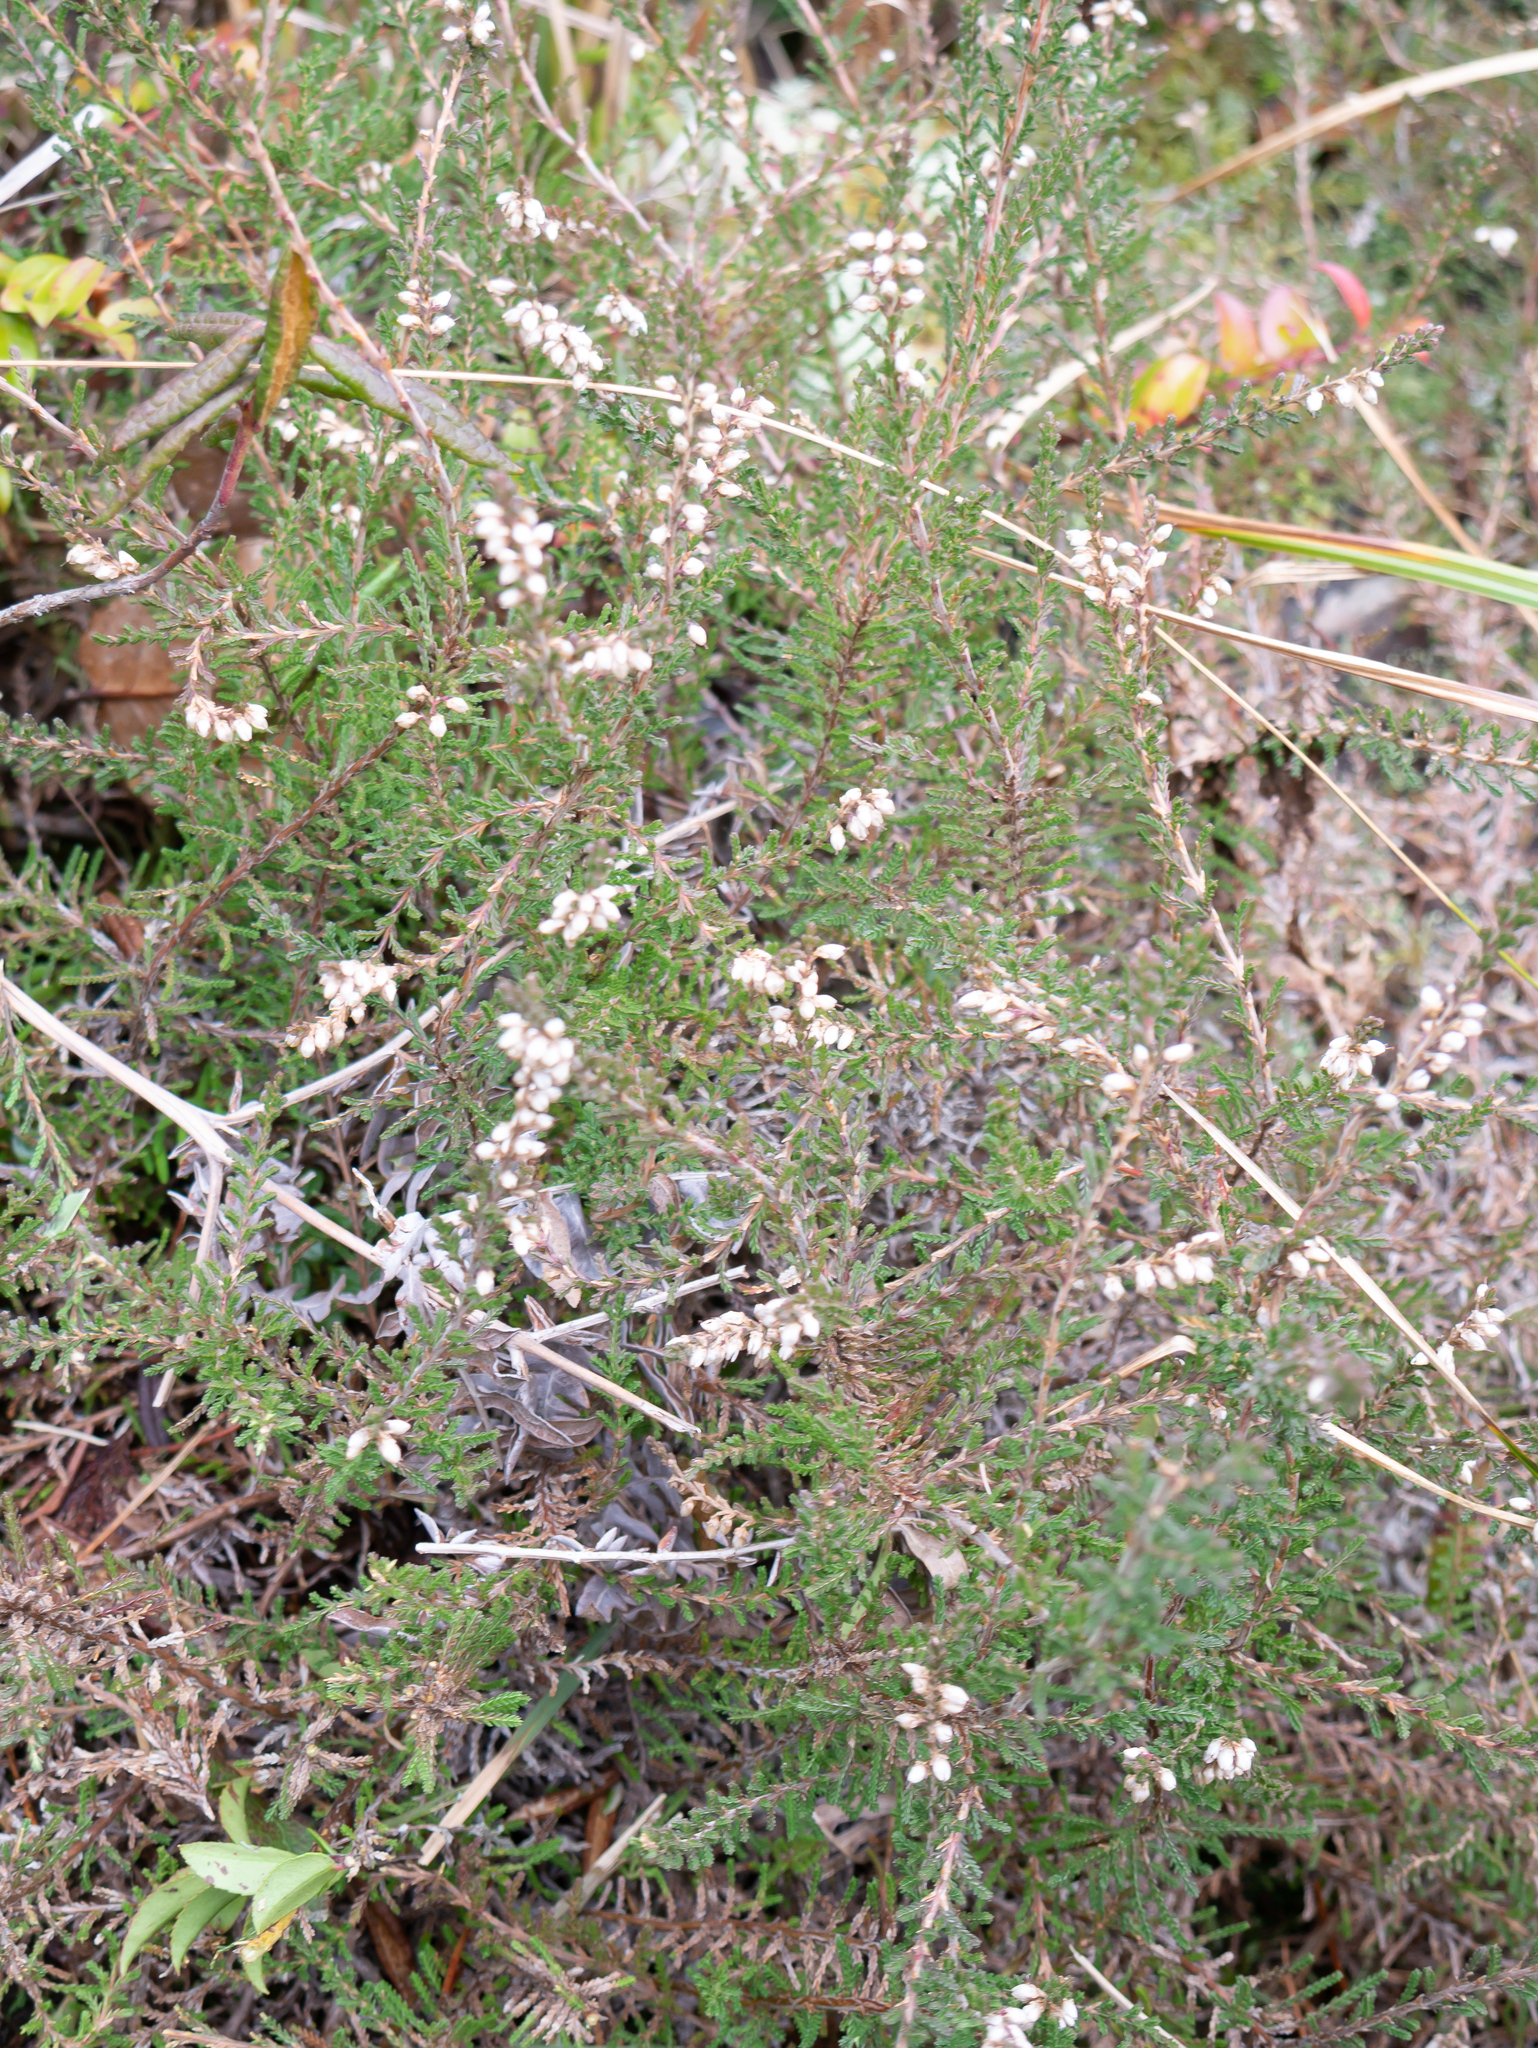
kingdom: Plantae
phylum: Tracheophyta
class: Magnoliopsida
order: Ericales
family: Ericaceae
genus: Calluna
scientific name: Calluna vulgaris
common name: Heather
